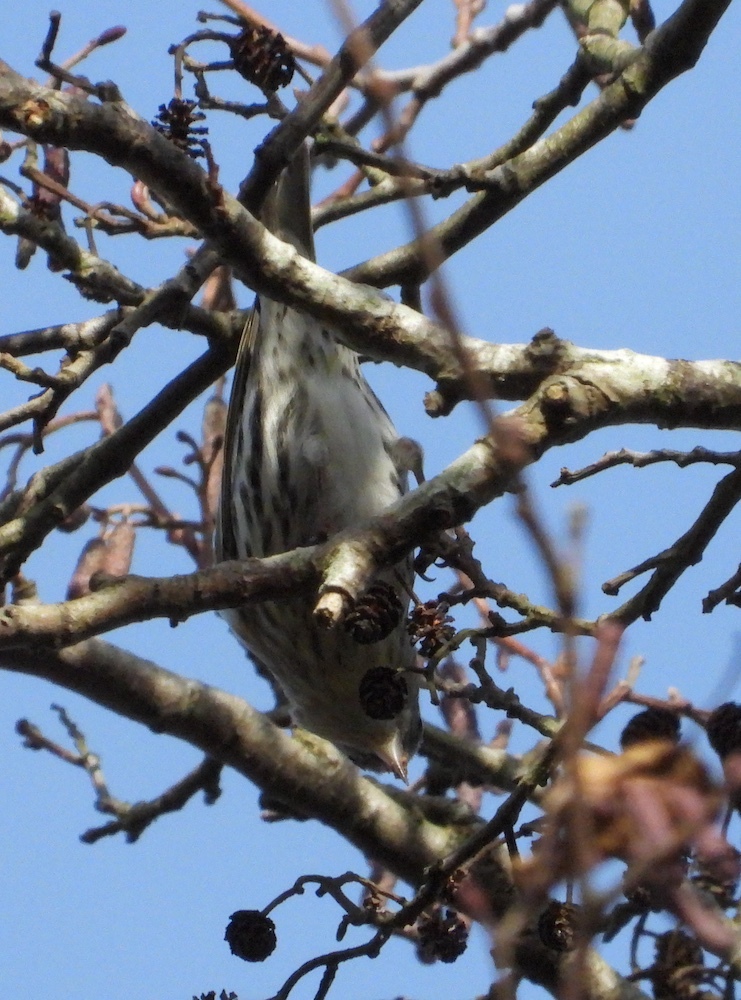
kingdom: Animalia
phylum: Chordata
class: Aves
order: Passeriformes
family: Fringillidae
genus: Spinus
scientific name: Spinus spinus
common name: Eurasian siskin
